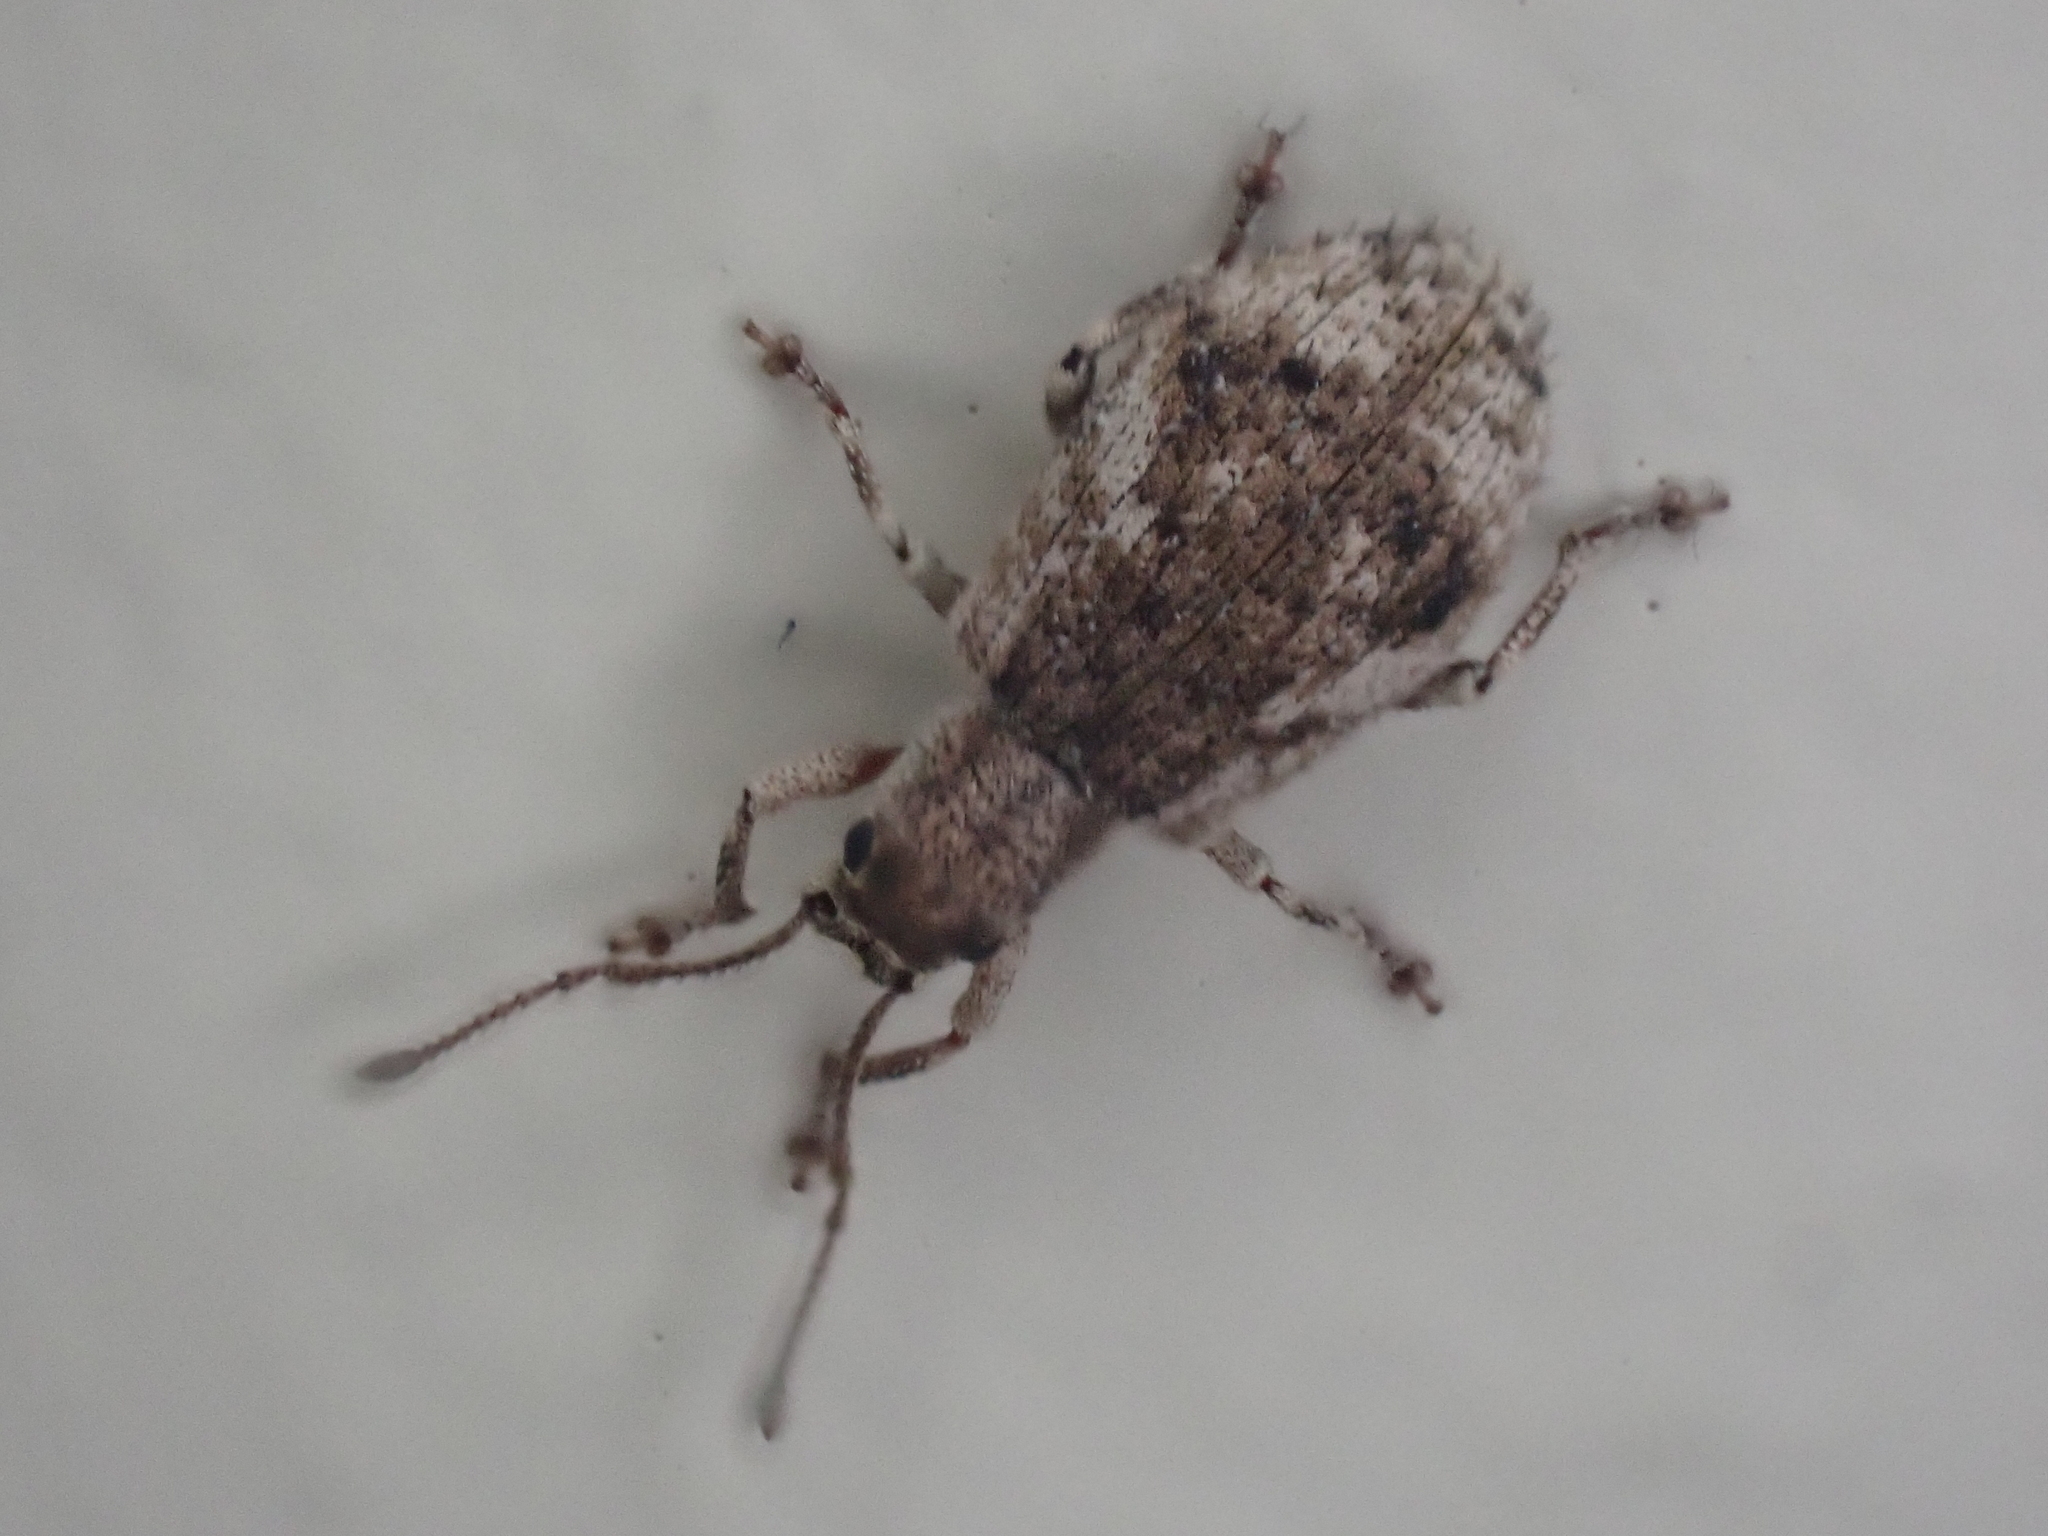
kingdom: Animalia
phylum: Arthropoda
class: Insecta
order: Coleoptera
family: Curculionidae
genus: Pseudoedophrys
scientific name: Pseudoedophrys hilleri
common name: Weevil
